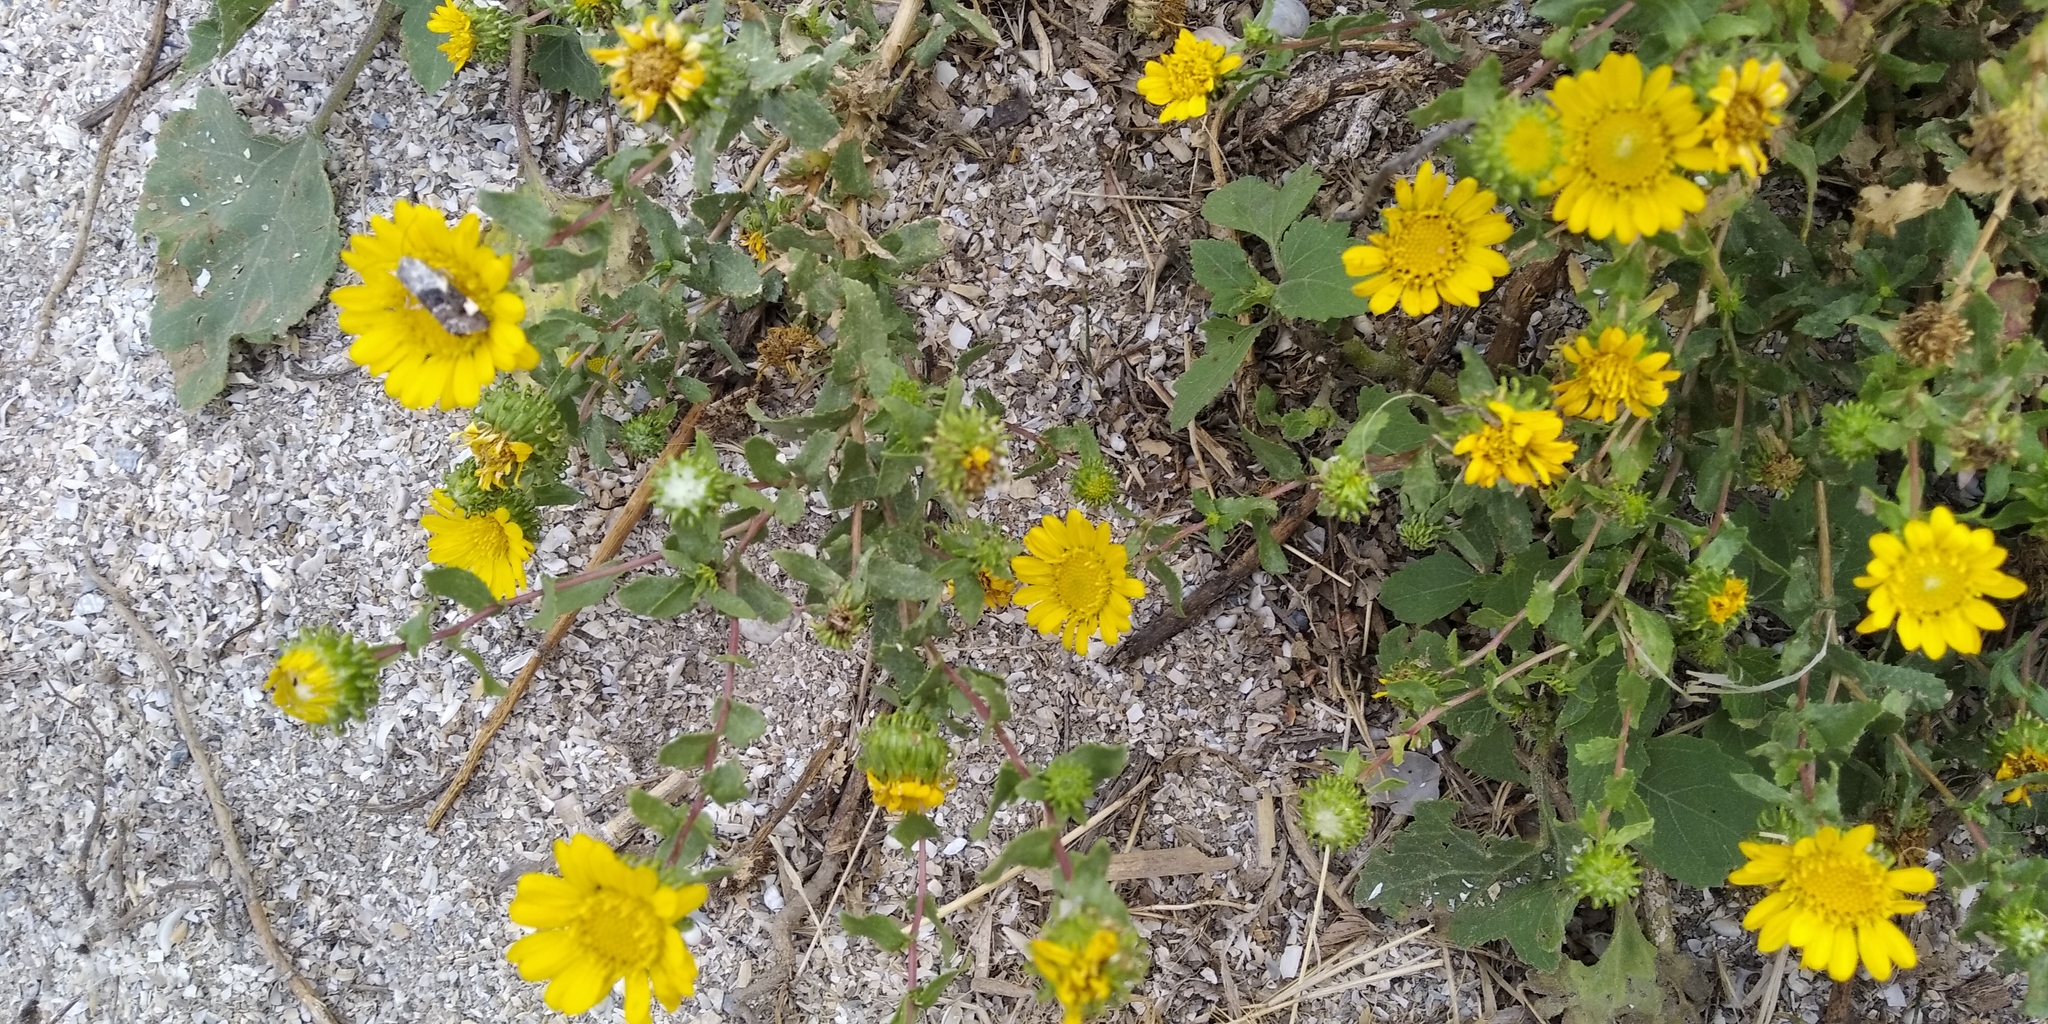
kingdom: Plantae
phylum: Tracheophyta
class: Magnoliopsida
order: Asterales
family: Asteraceae
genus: Grindelia
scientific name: Grindelia squarrosa
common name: Curly-cup gumweed
